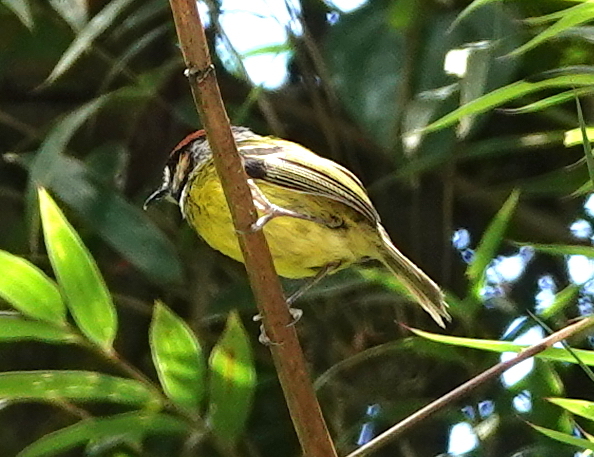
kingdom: Animalia
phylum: Chordata
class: Aves
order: Passeriformes
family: Tyrannidae
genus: Poecilotriccus
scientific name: Poecilotriccus ruficeps
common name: Rufous-crowned tody-flycatcher
